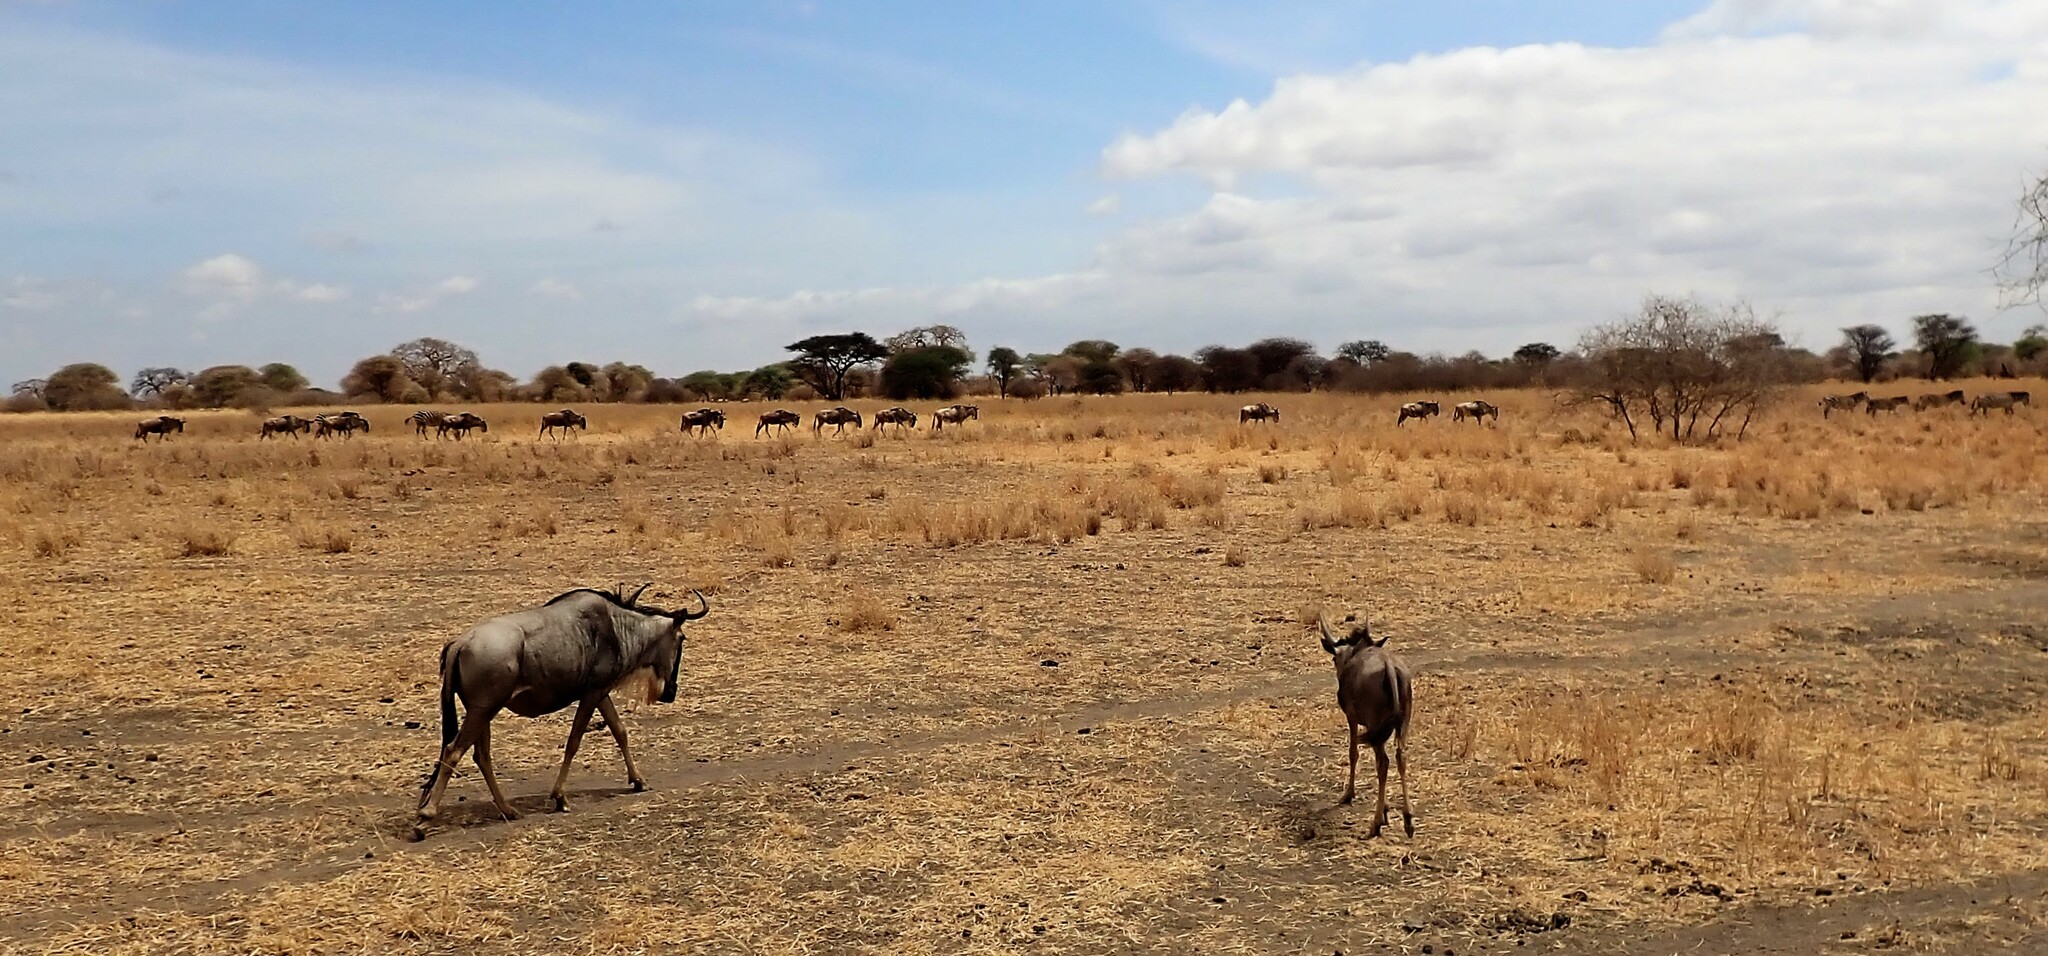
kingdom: Animalia
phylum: Chordata
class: Mammalia
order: Artiodactyla
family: Bovidae
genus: Connochaetes
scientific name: Connochaetes taurinus
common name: Blue wildebeest
